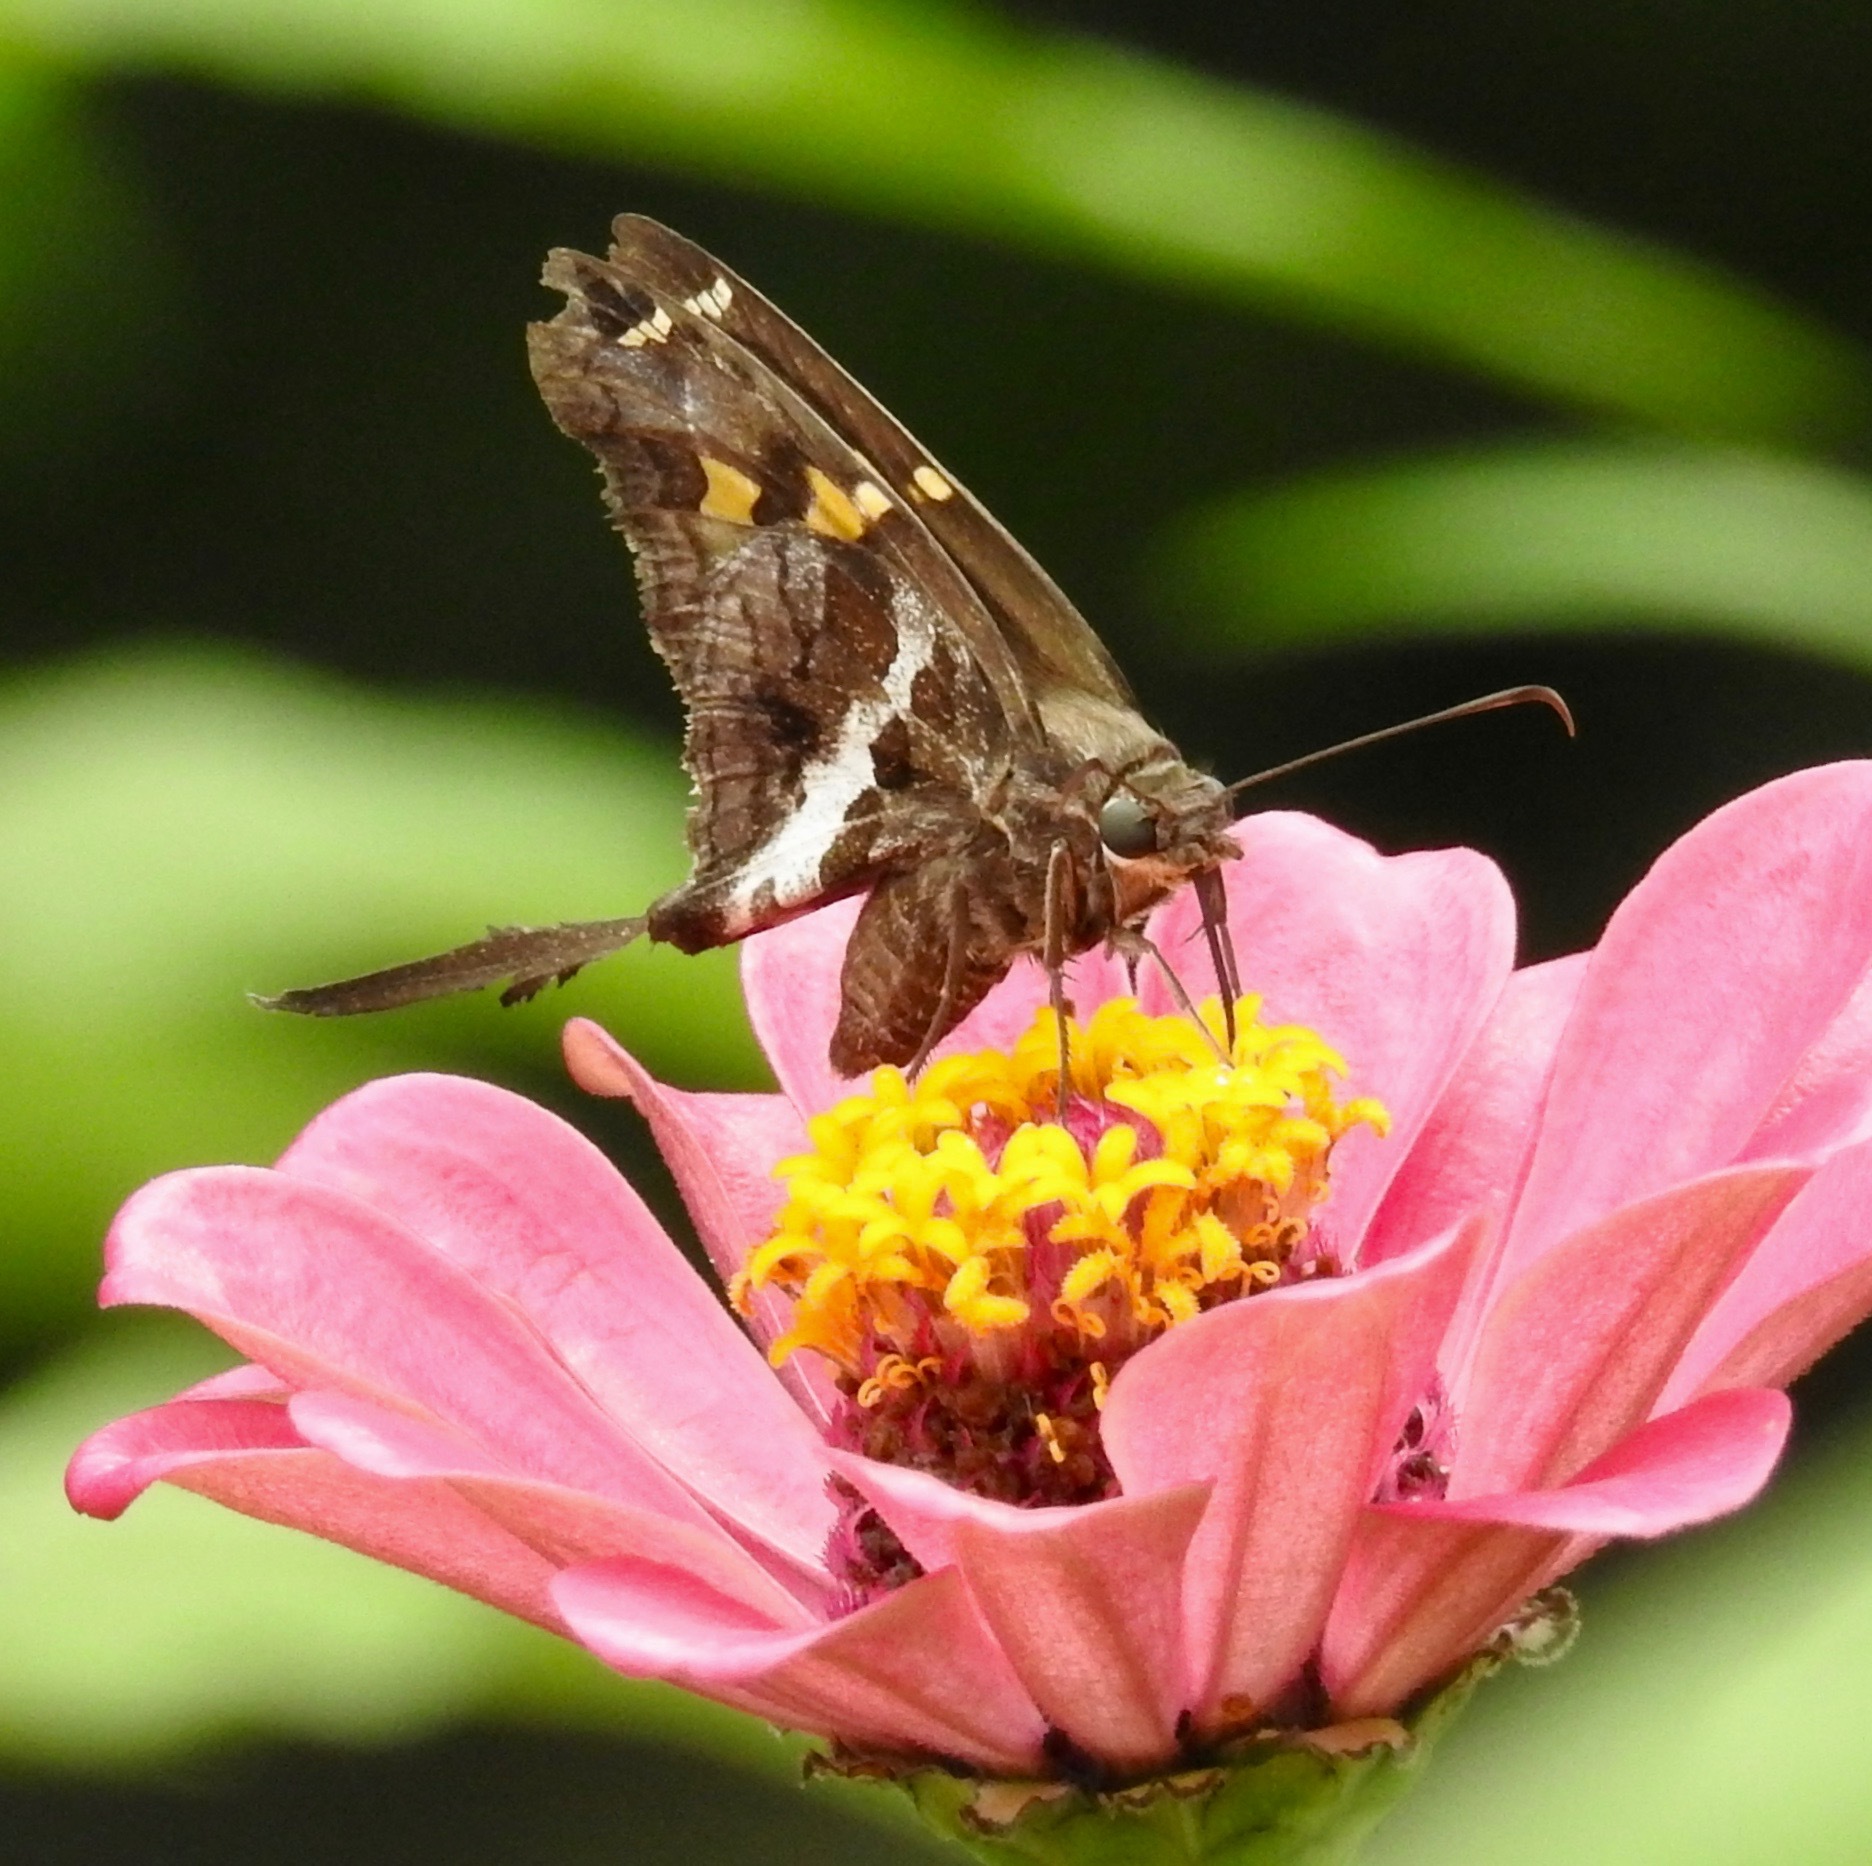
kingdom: Animalia
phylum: Arthropoda
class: Insecta
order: Lepidoptera
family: Hesperiidae
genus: Chioides
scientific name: Chioides catillus
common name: Silverbanded skipper
